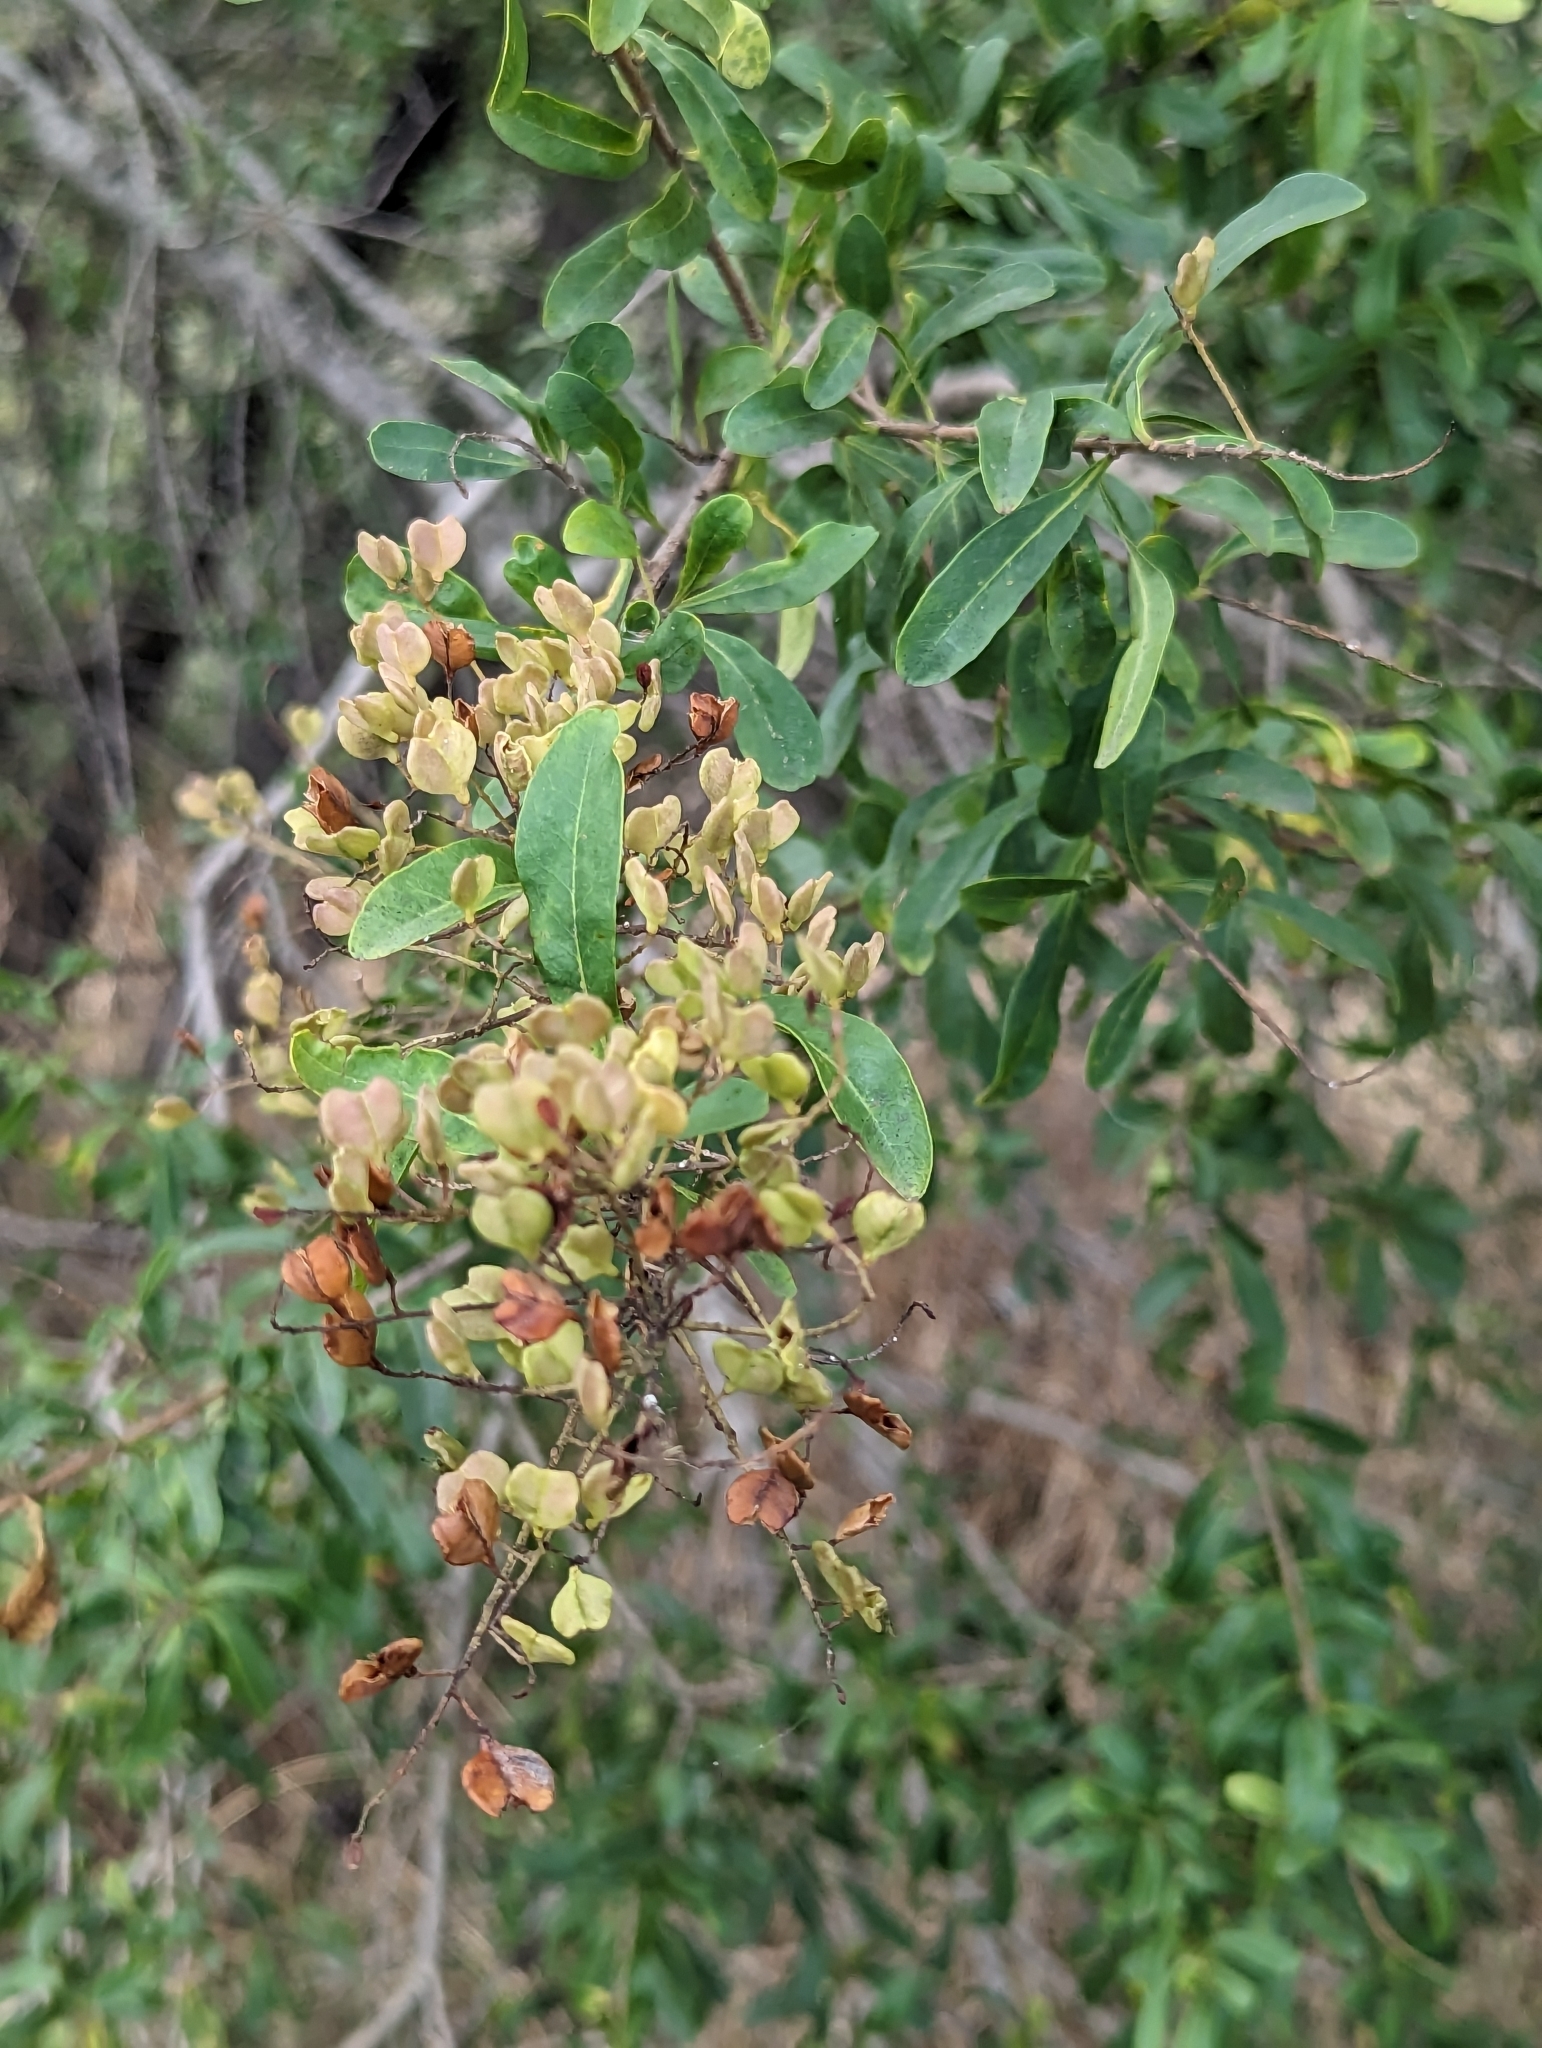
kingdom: Plantae
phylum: Tracheophyta
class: Magnoliopsida
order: Apiales
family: Pittosporaceae
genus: Bursaria
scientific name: Bursaria spinosa
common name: Australian blackthorn
